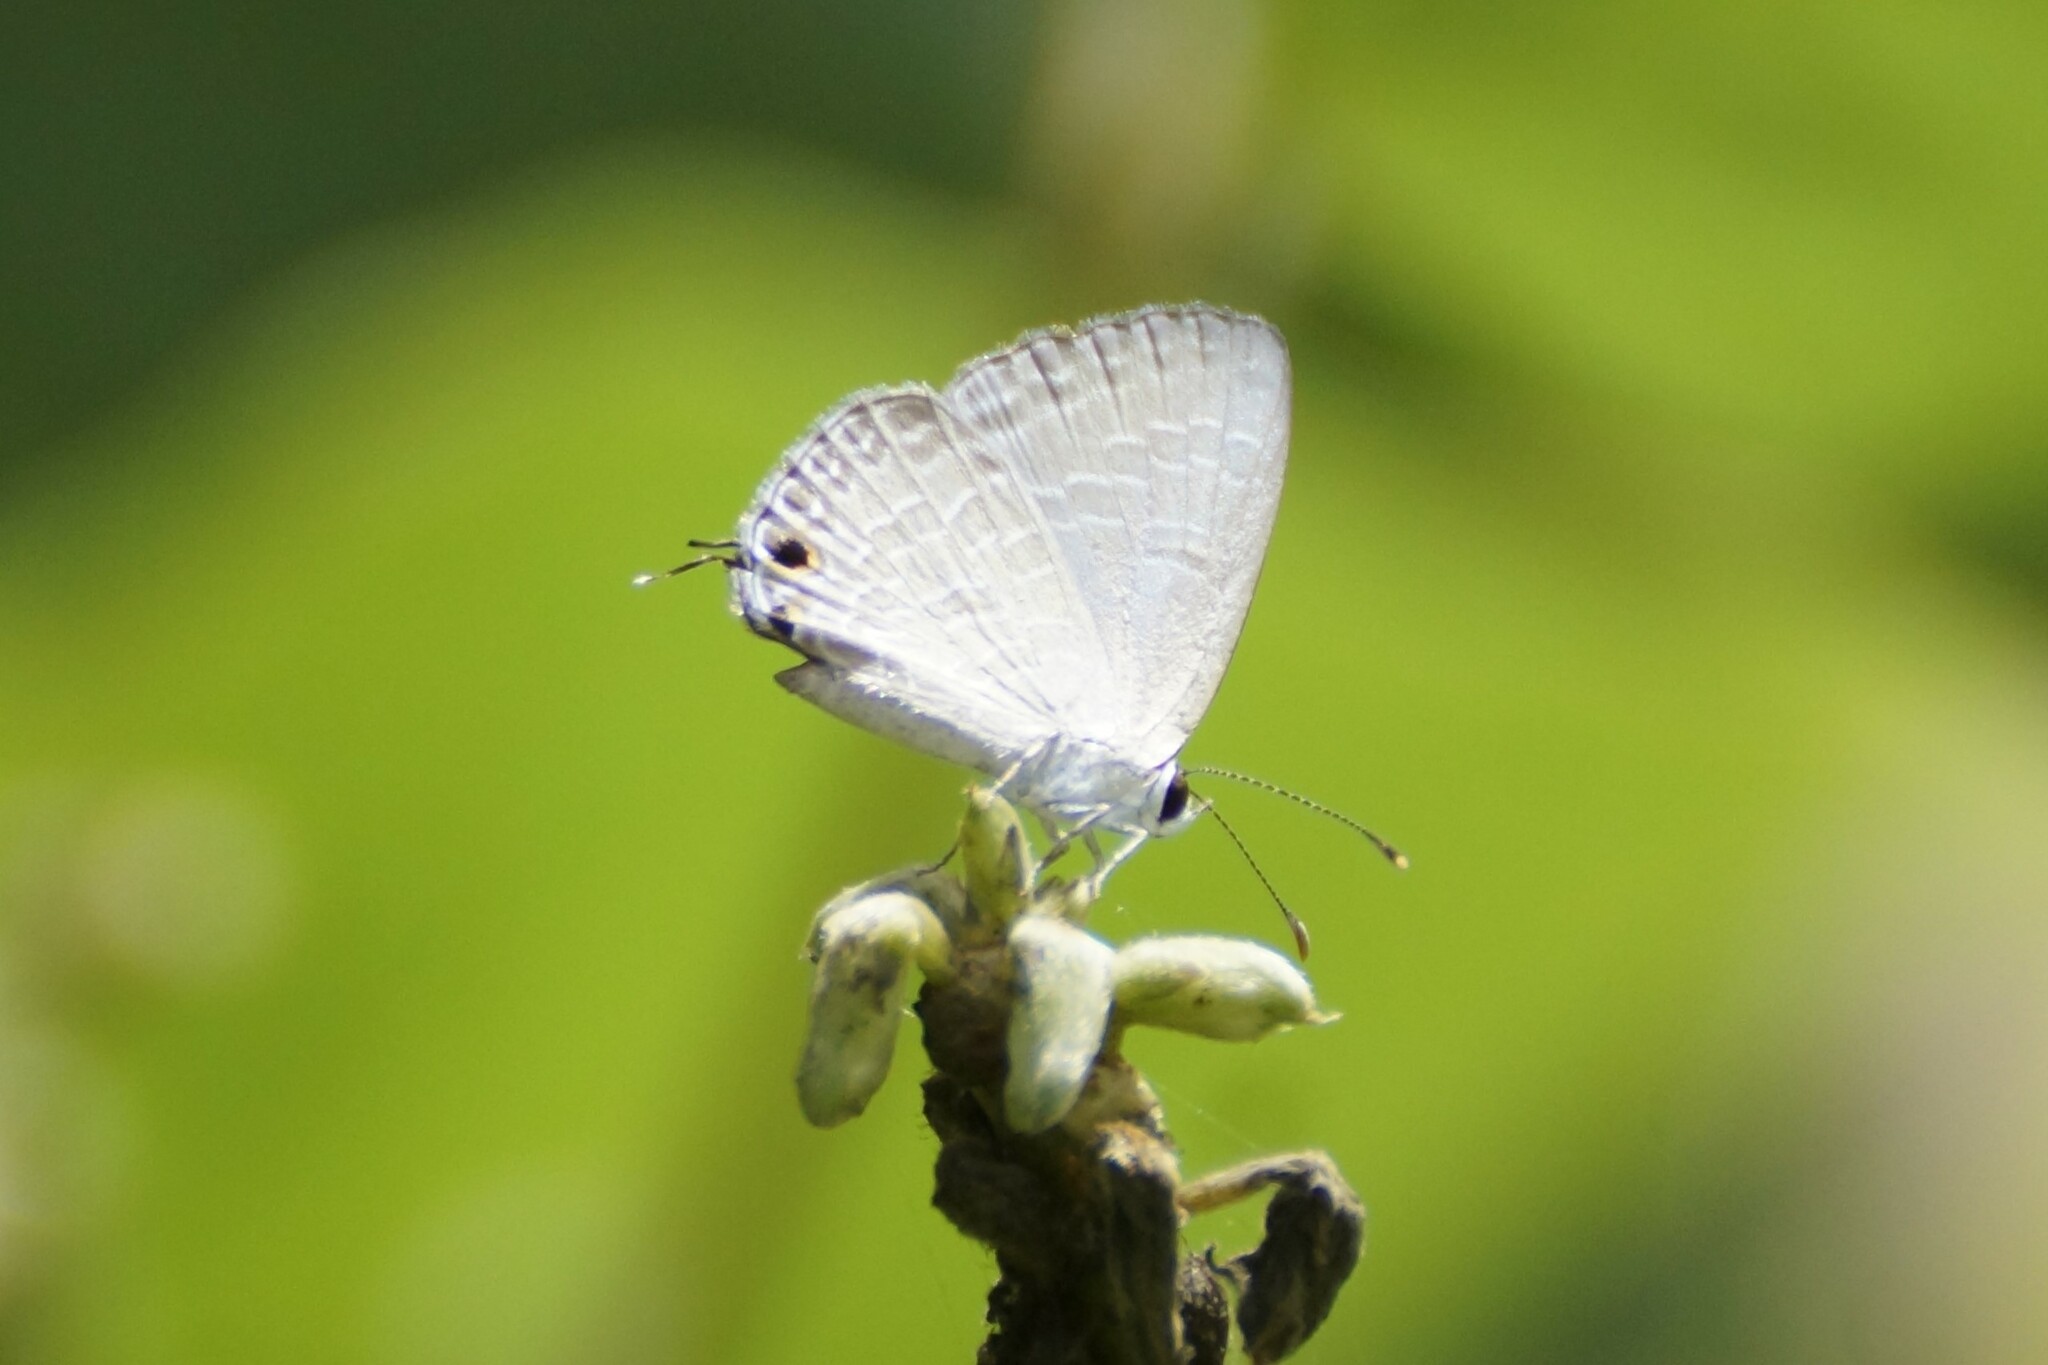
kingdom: Animalia
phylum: Arthropoda
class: Insecta
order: Lepidoptera
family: Lycaenidae
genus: Jamides
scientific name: Jamides phaseli
